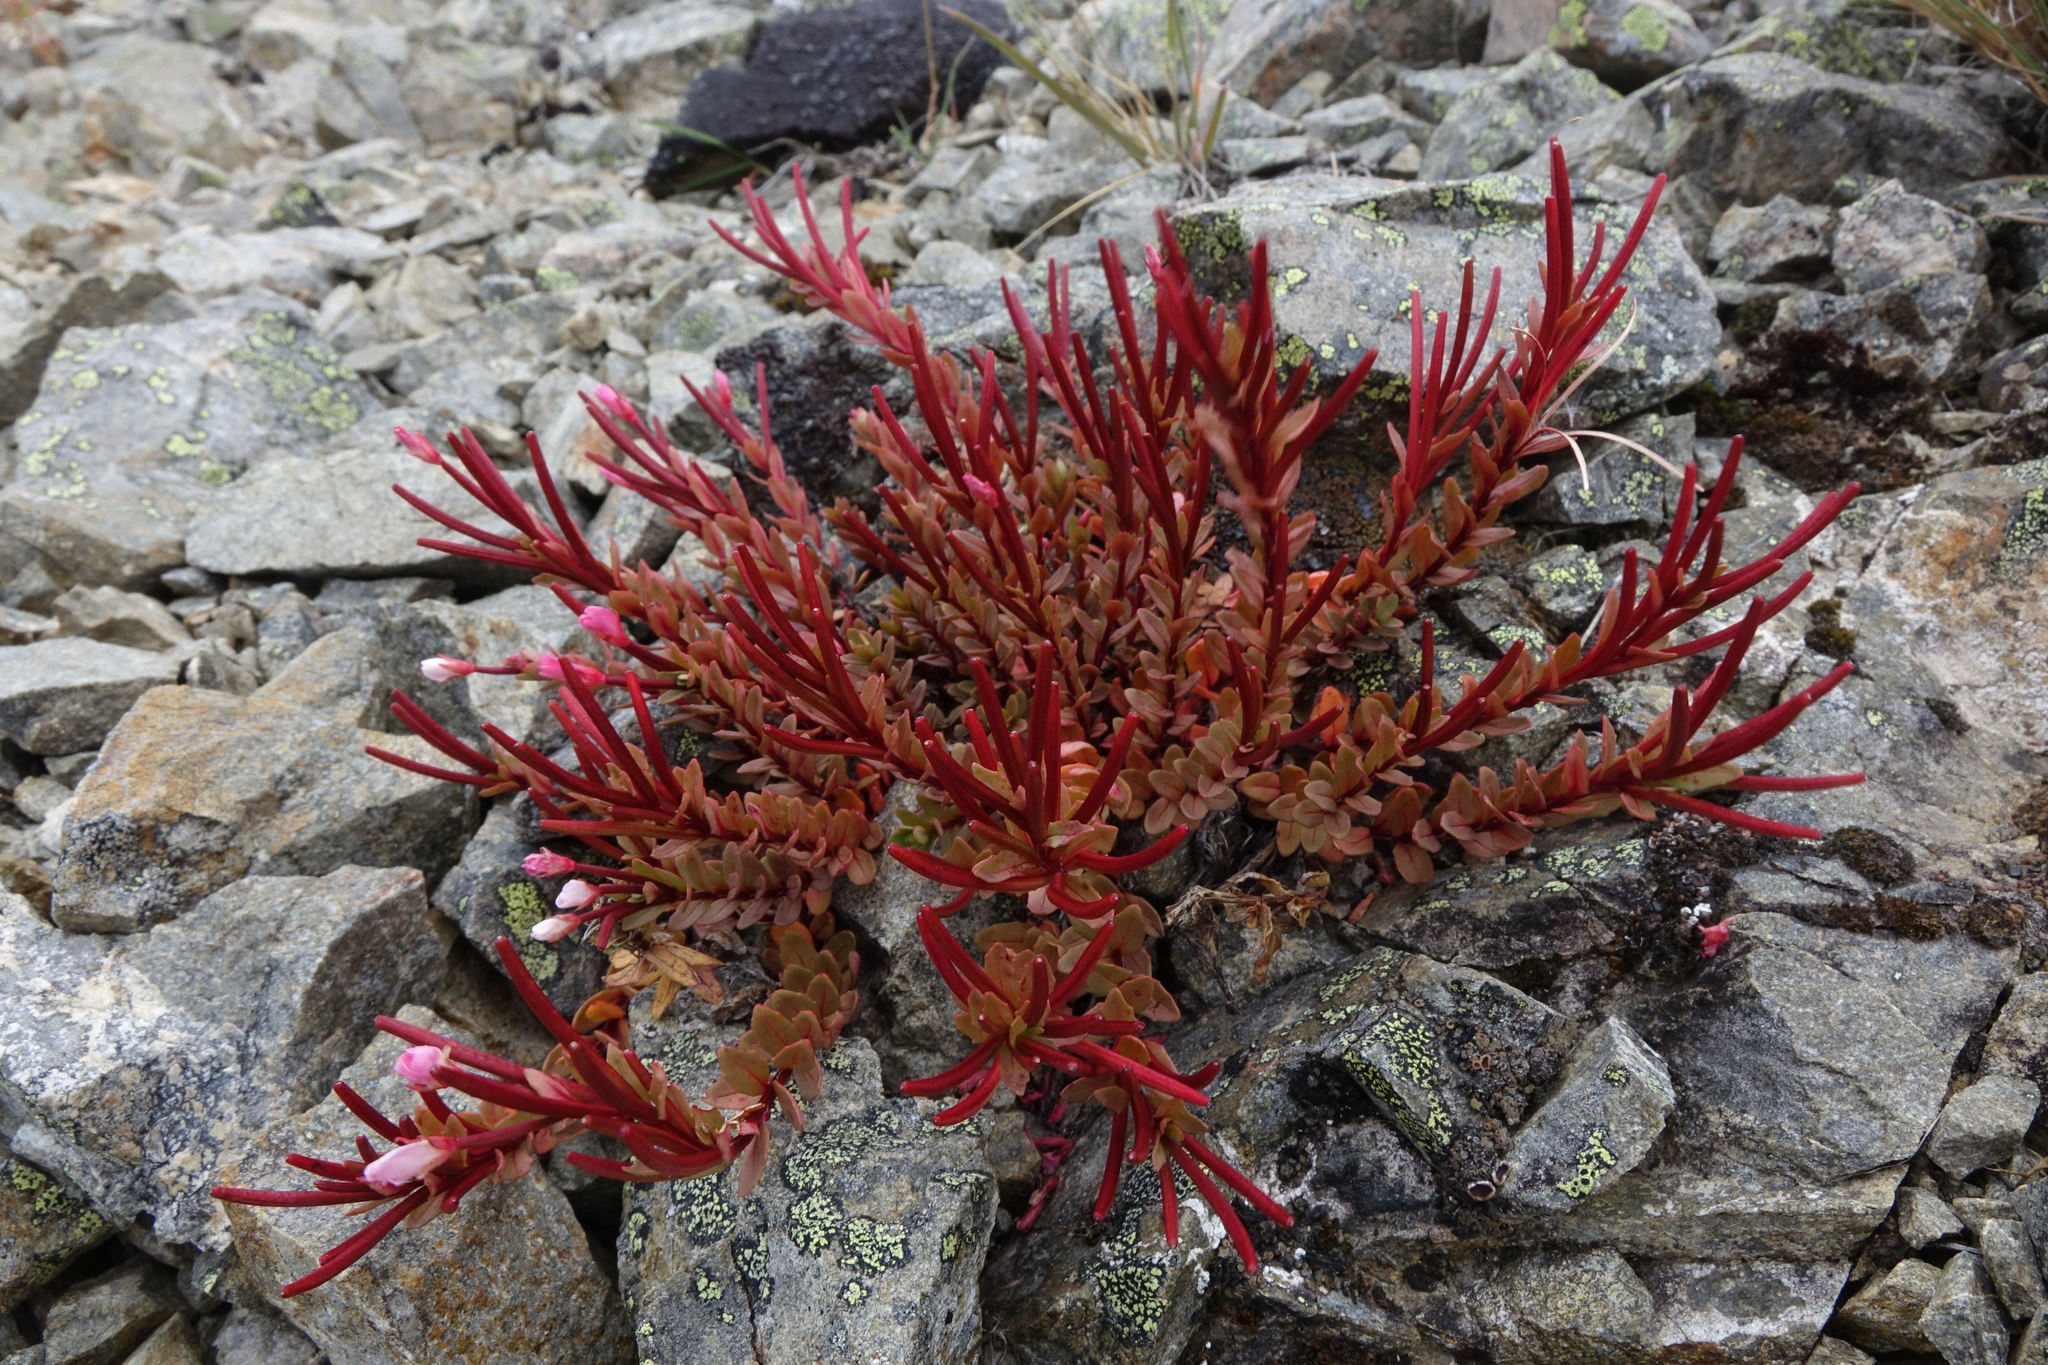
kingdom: Plantae
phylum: Tracheophyta
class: Magnoliopsida
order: Myrtales
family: Onagraceae
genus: Epilobium
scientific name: Epilobium porphyrium
